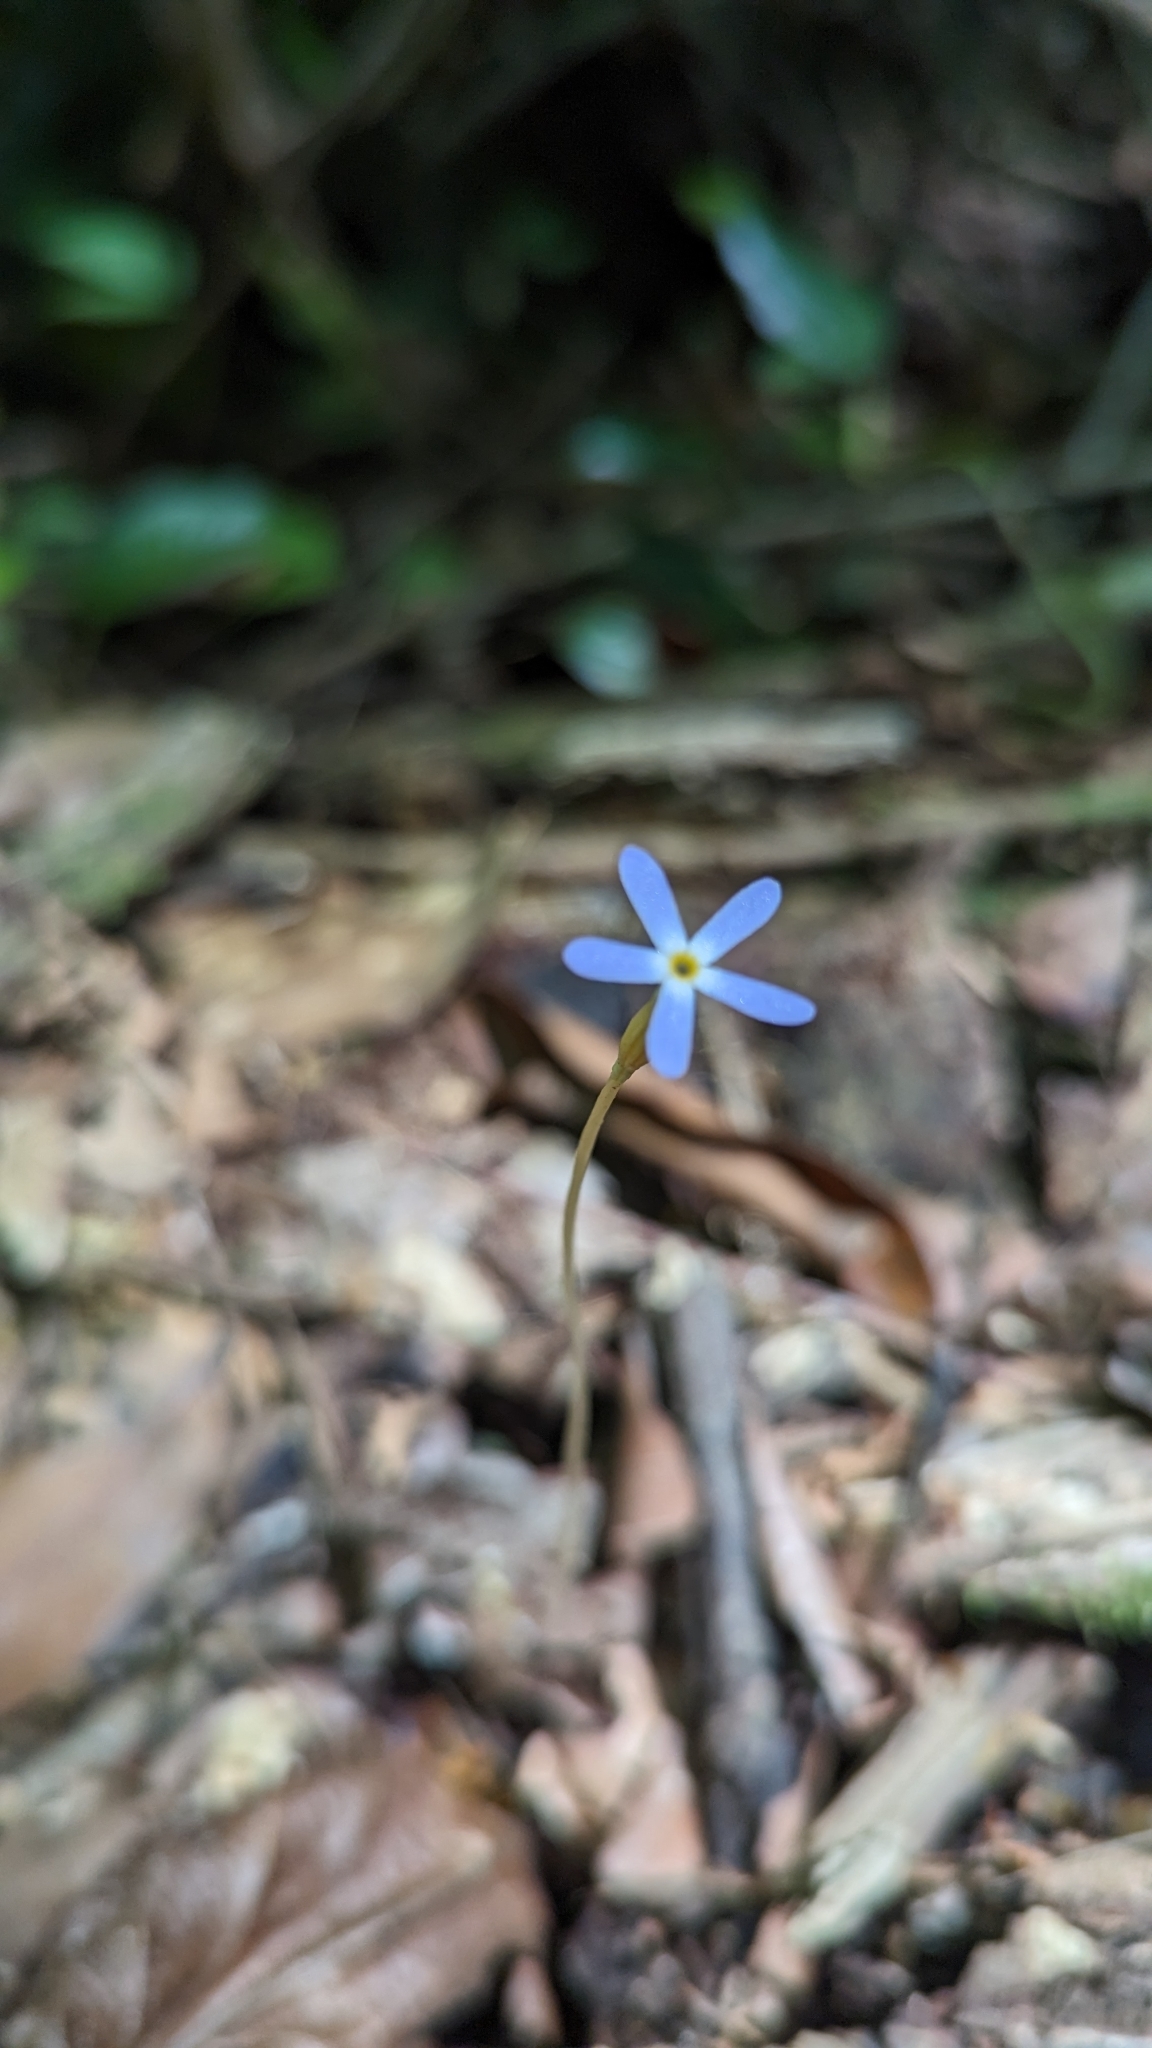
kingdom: Plantae
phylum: Tracheophyta
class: Magnoliopsida
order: Gentianales
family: Gentianaceae
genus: Voyria
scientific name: Voyria tenella
